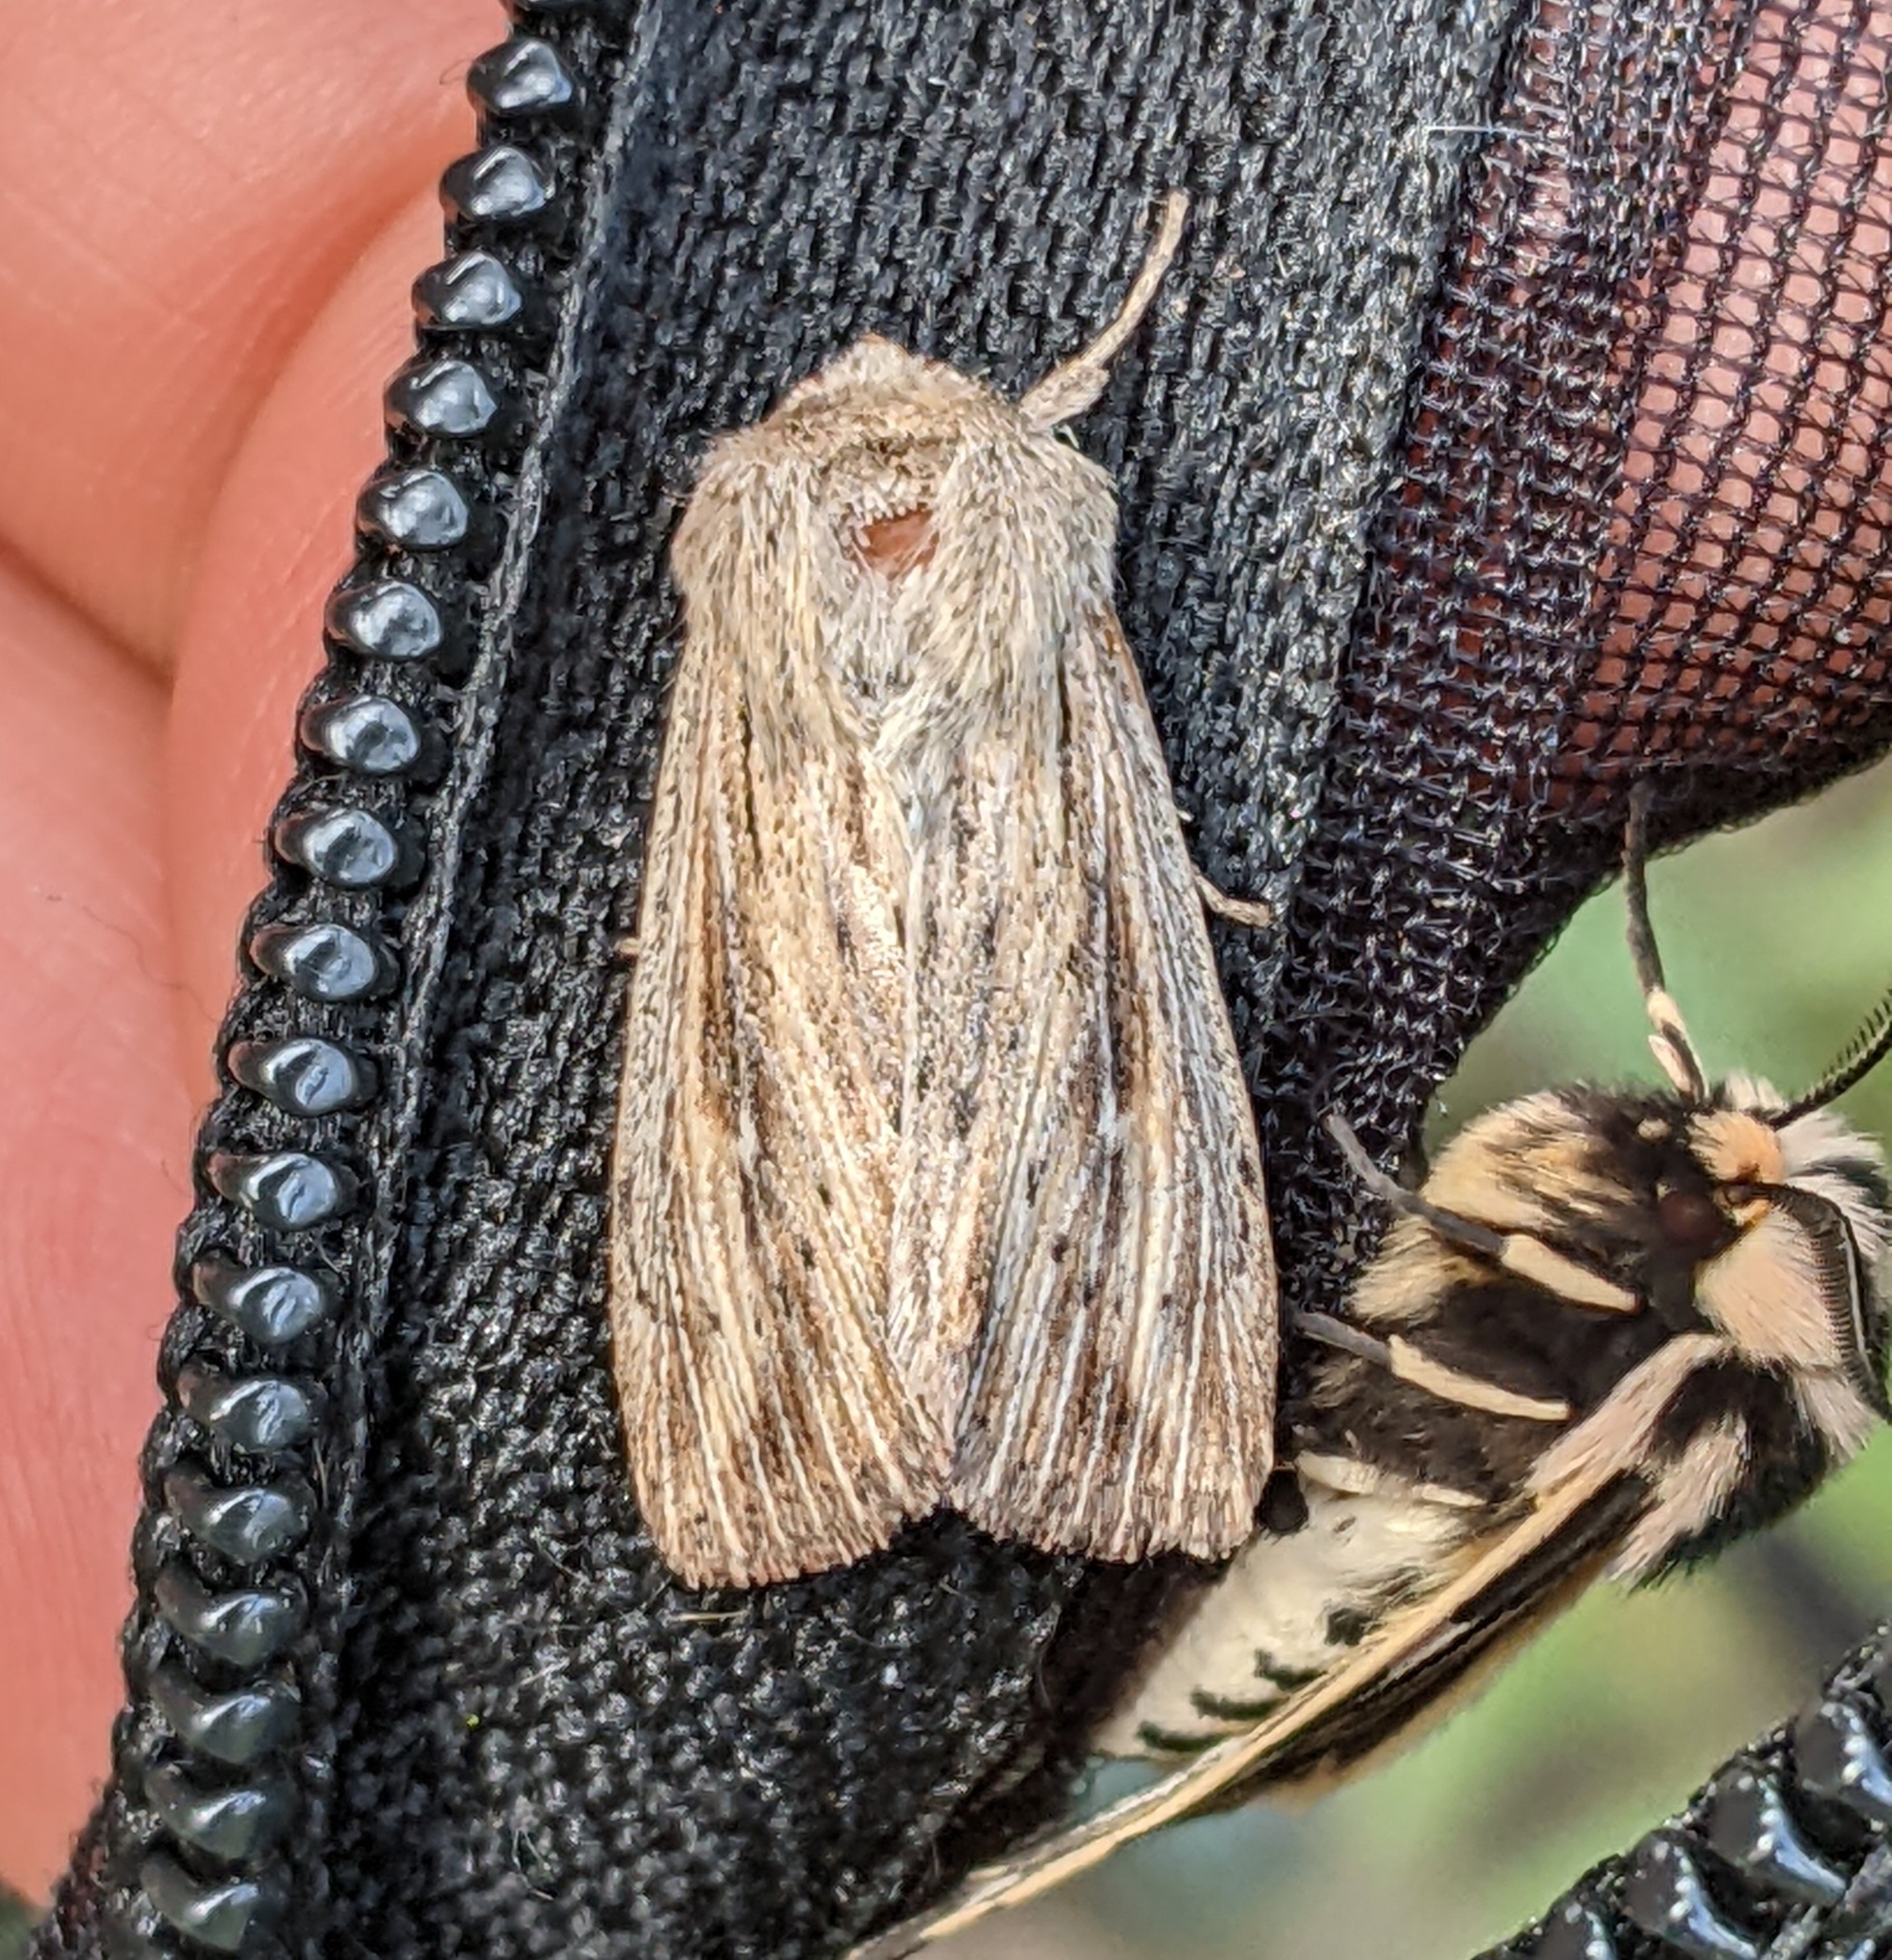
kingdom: Animalia
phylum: Arthropoda
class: Insecta
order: Lepidoptera
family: Noctuidae
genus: Leucania
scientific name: Leucania insueta
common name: Heterodox wainscot moth
